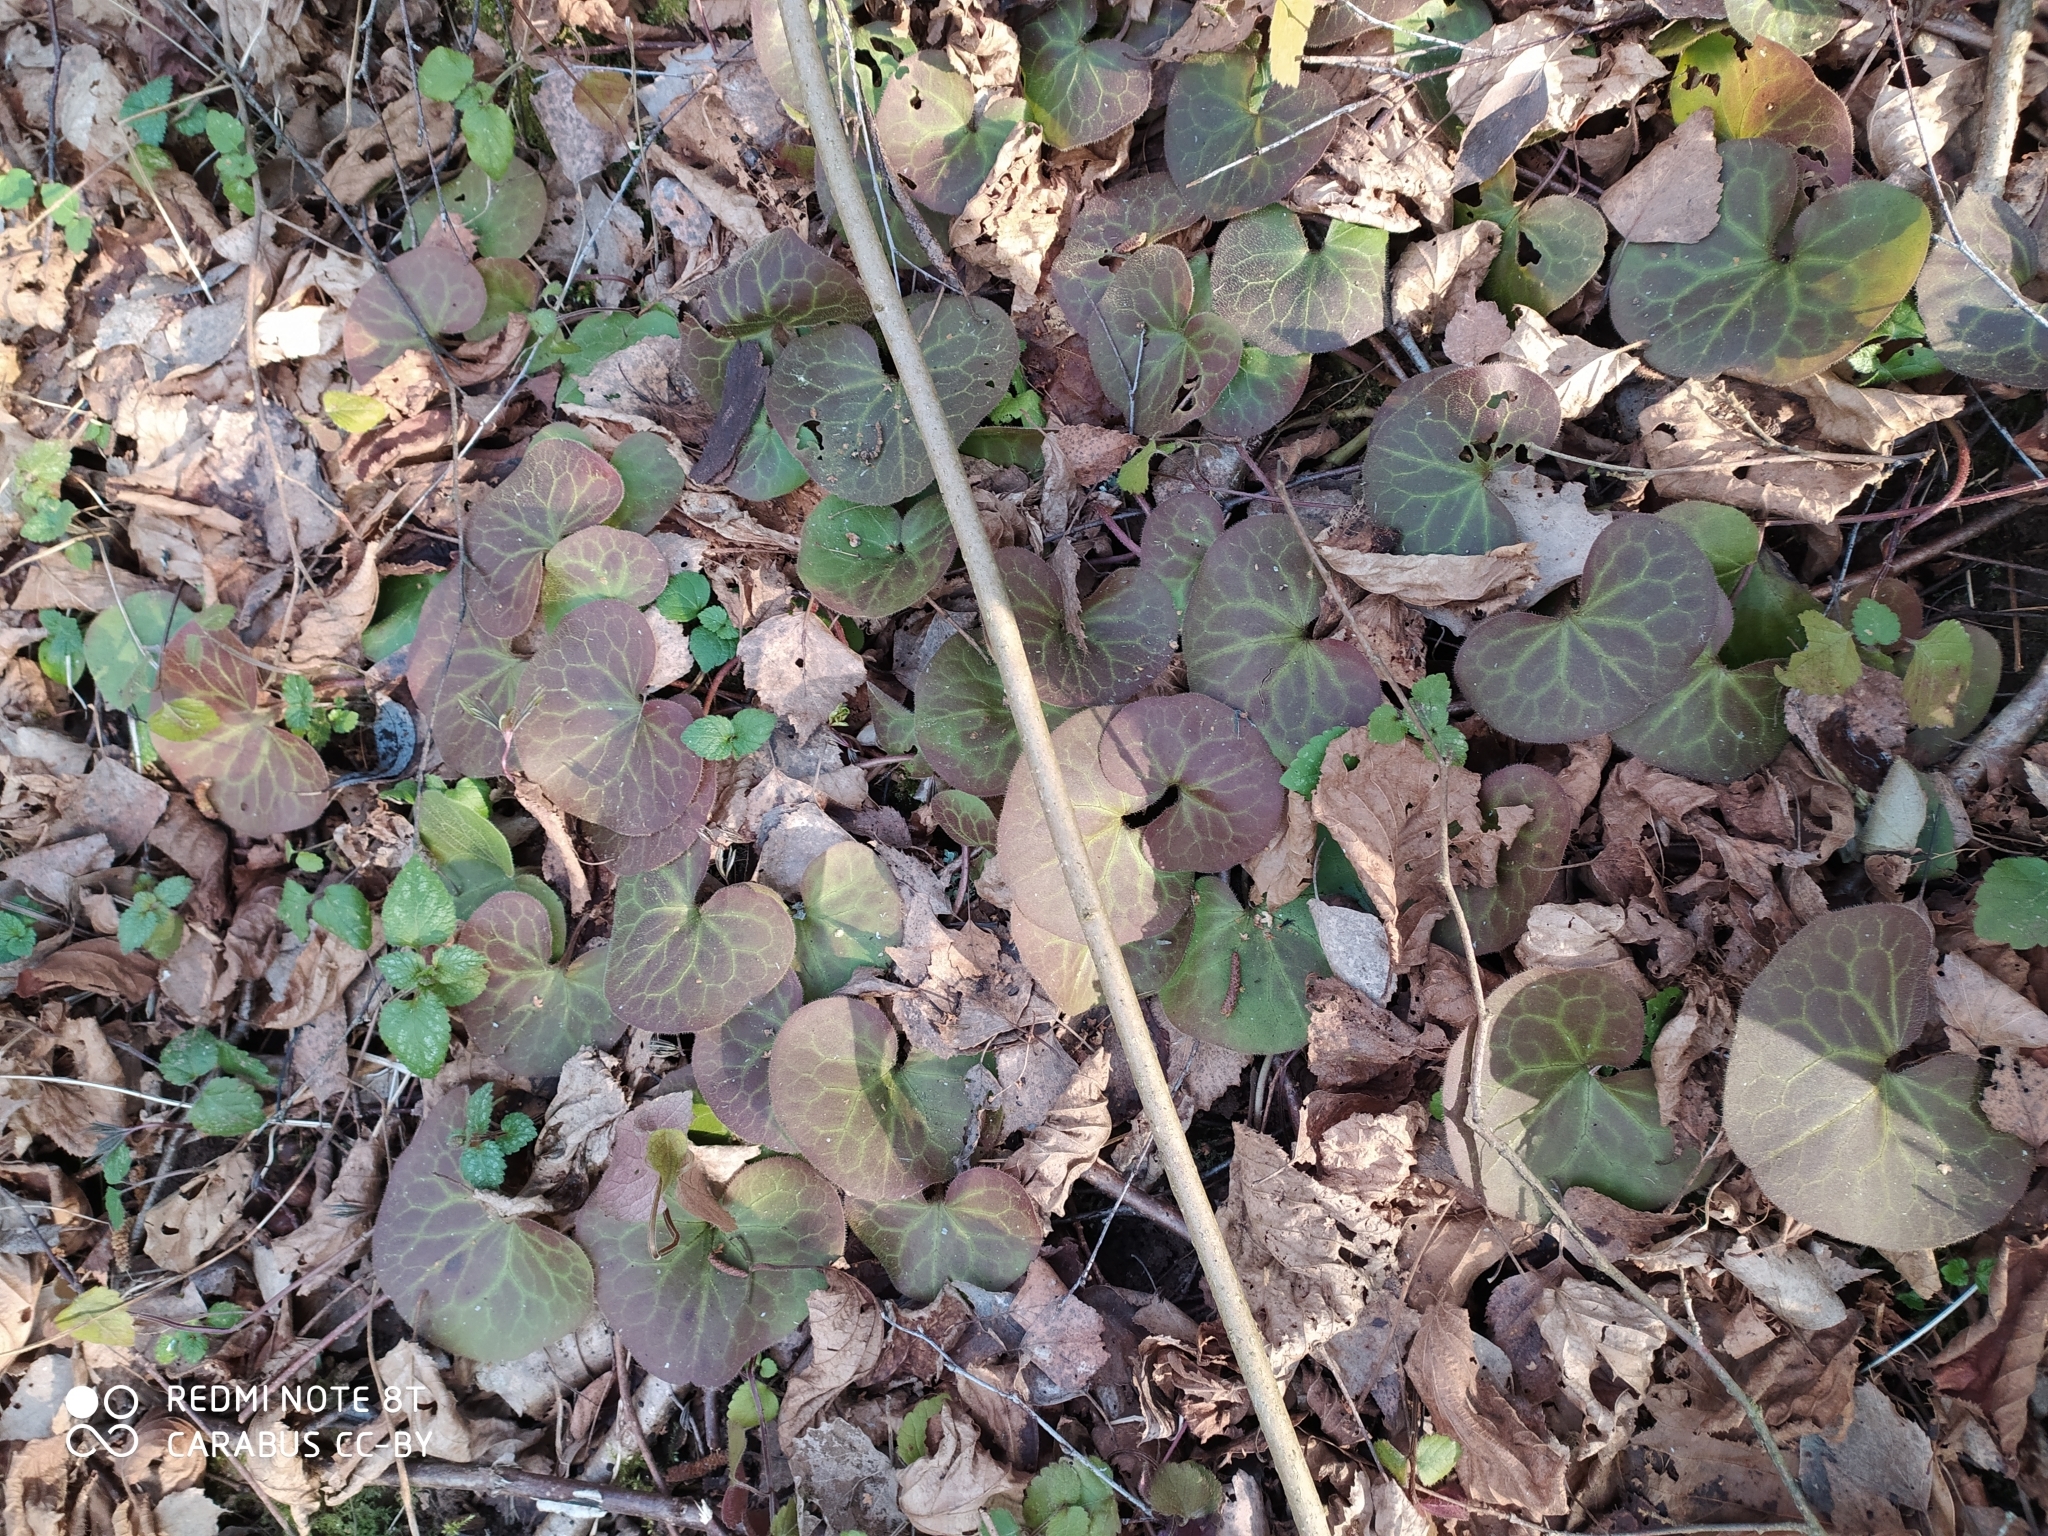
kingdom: Plantae
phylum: Tracheophyta
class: Magnoliopsida
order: Piperales
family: Aristolochiaceae
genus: Asarum
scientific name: Asarum europaeum
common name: Asarabacca
